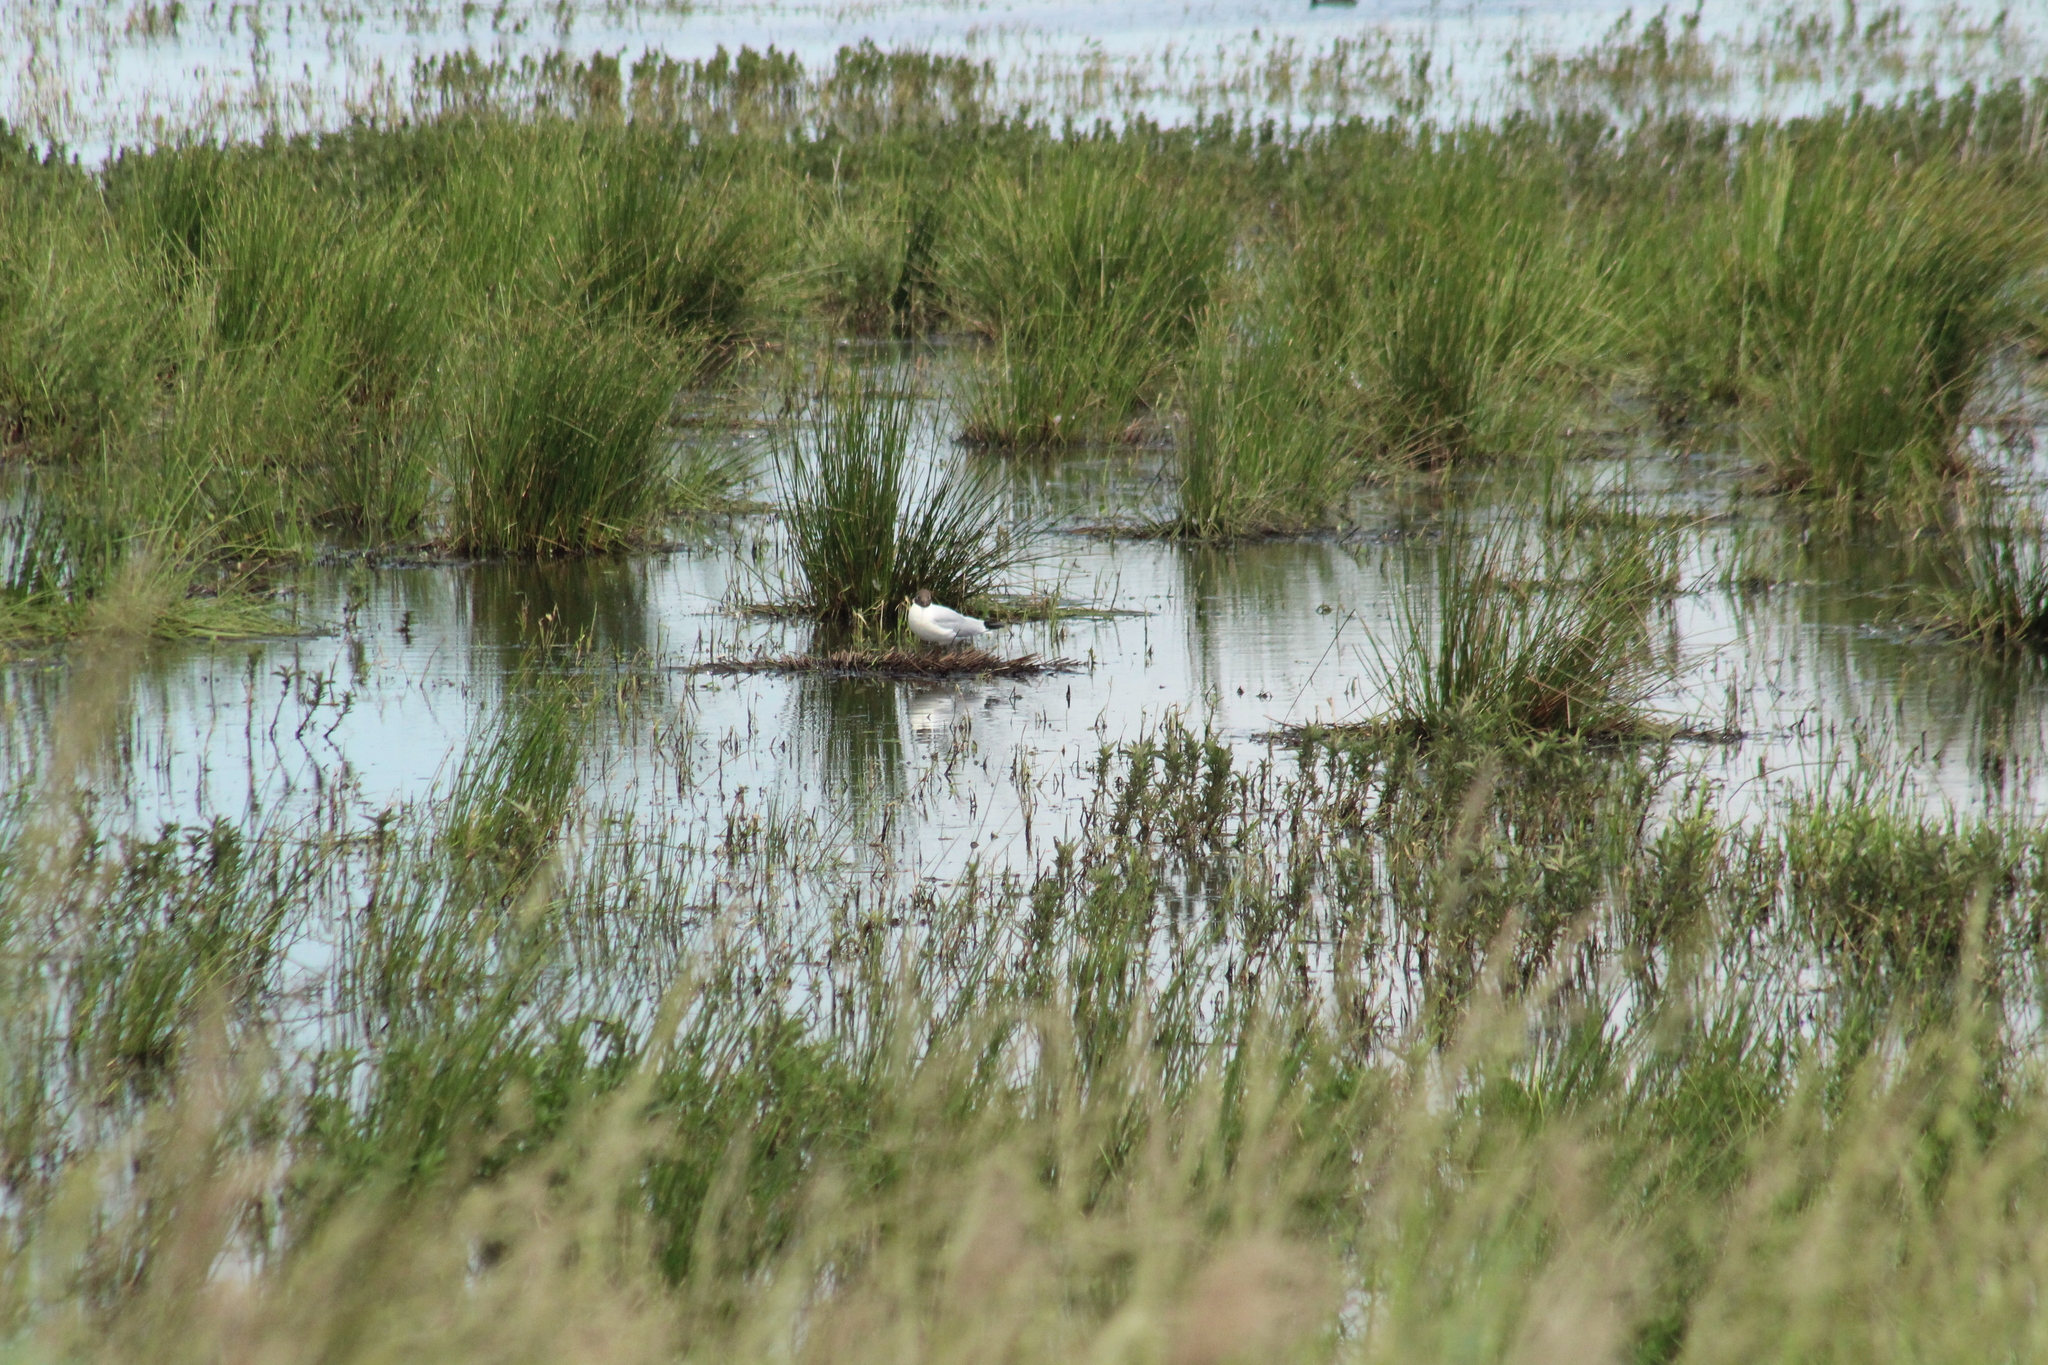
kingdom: Animalia
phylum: Chordata
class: Aves
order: Charadriiformes
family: Laridae
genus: Chroicocephalus
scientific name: Chroicocephalus ridibundus
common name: Black-headed gull
